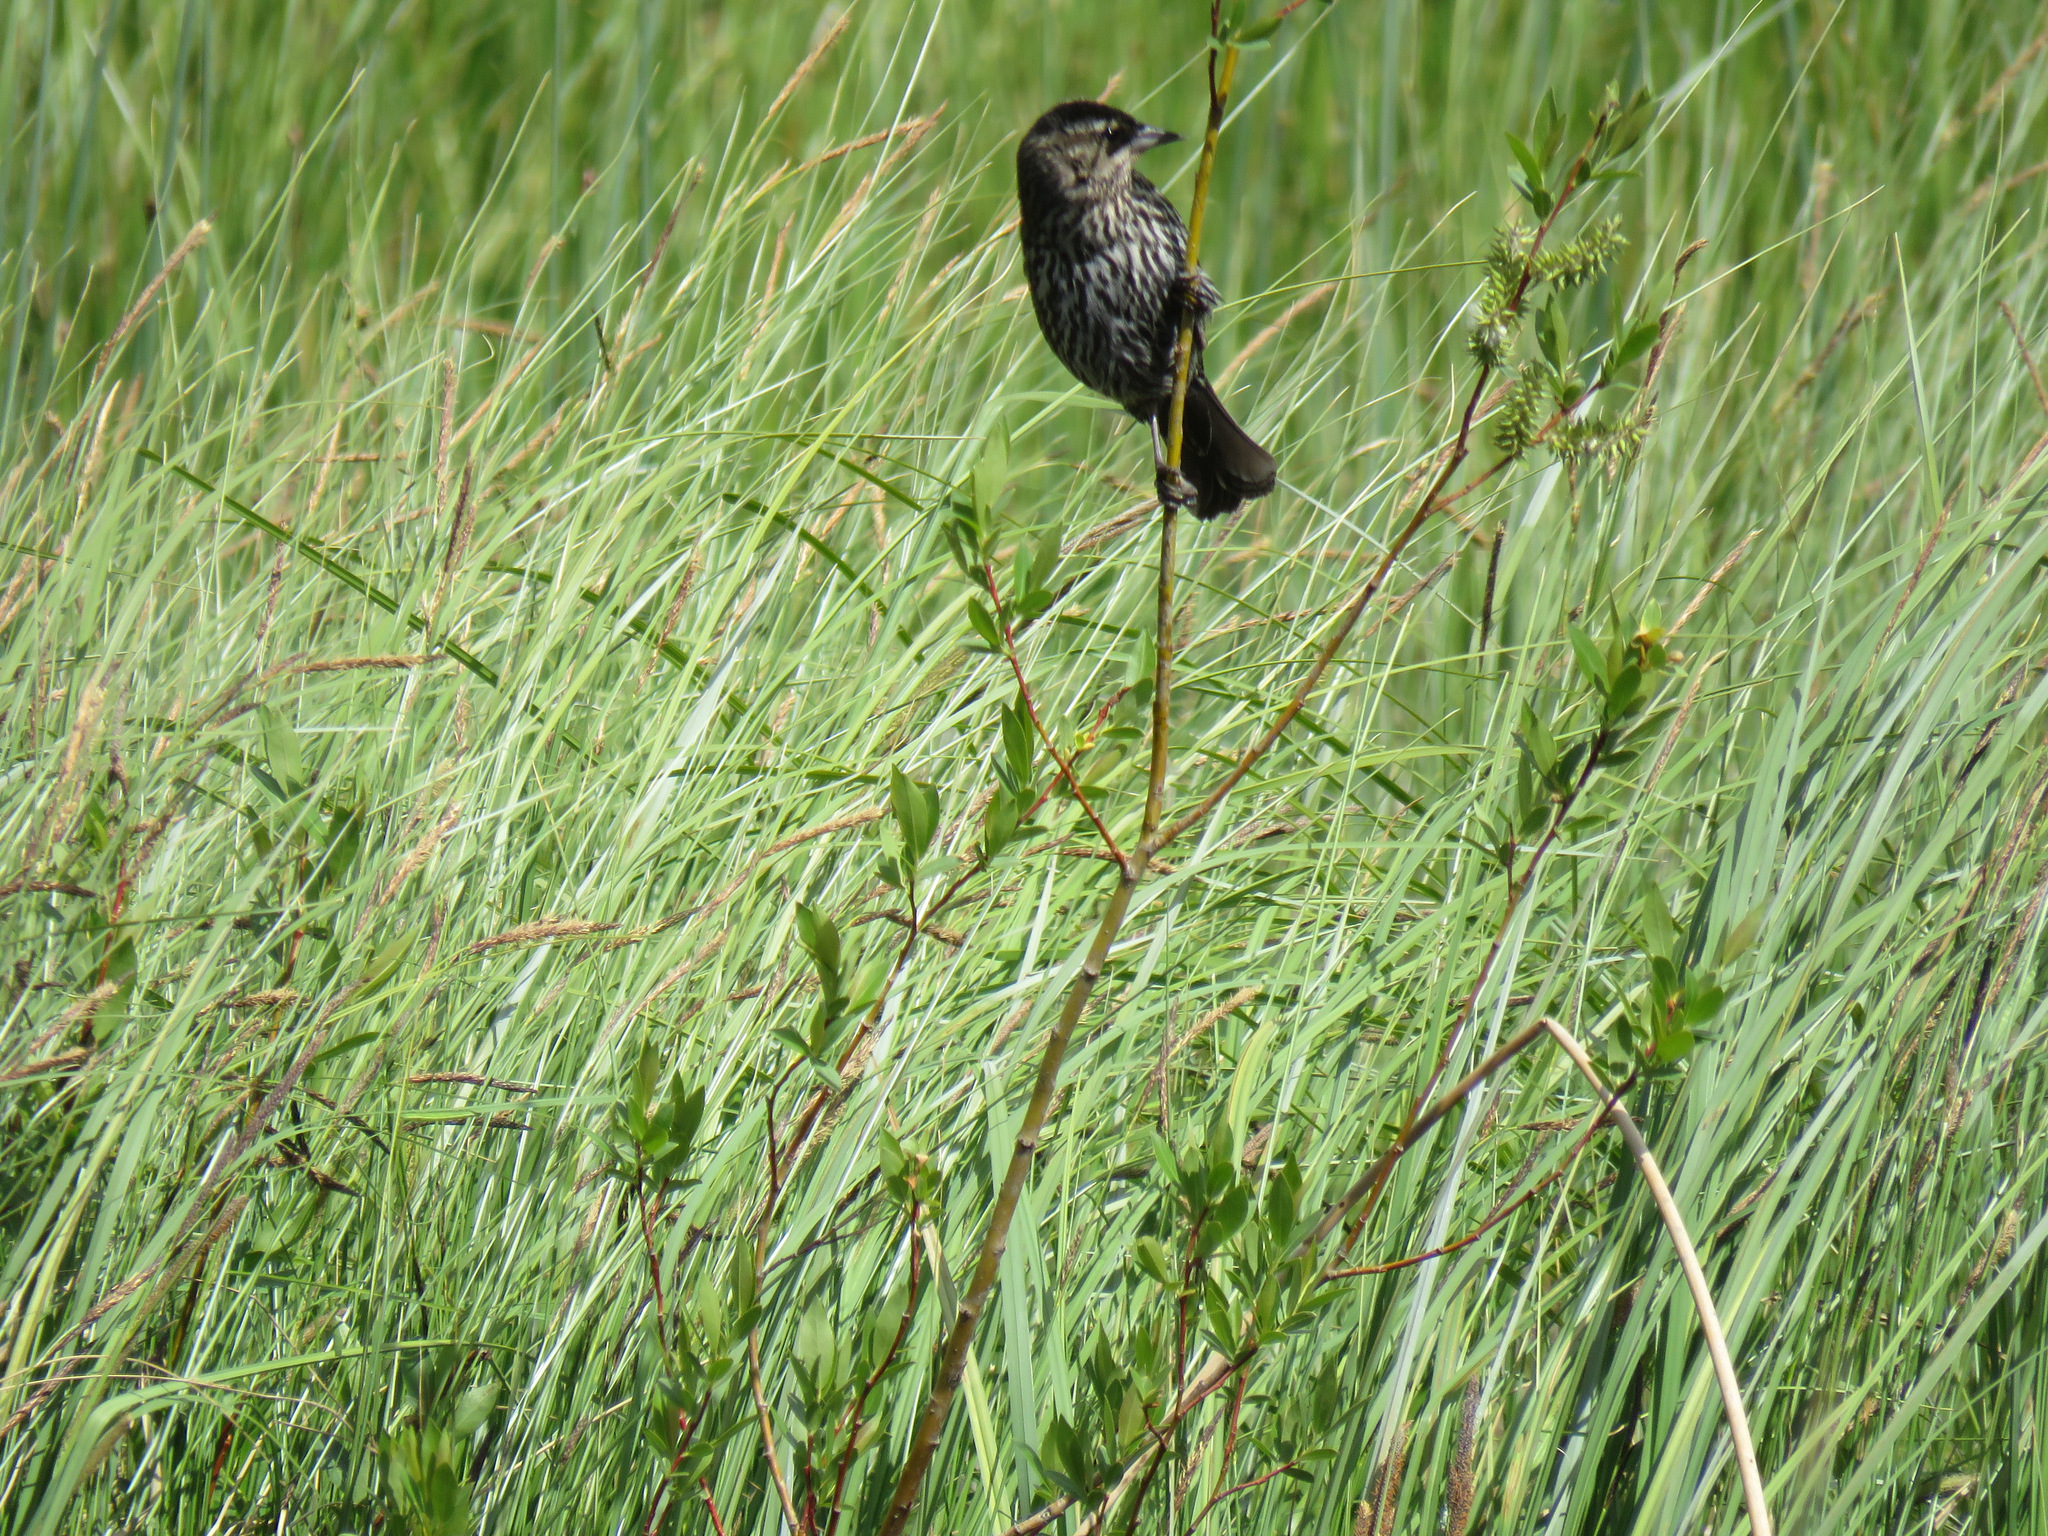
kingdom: Animalia
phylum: Chordata
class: Aves
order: Passeriformes
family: Icteridae
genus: Agelaius
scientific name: Agelaius phoeniceus
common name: Red-winged blackbird
